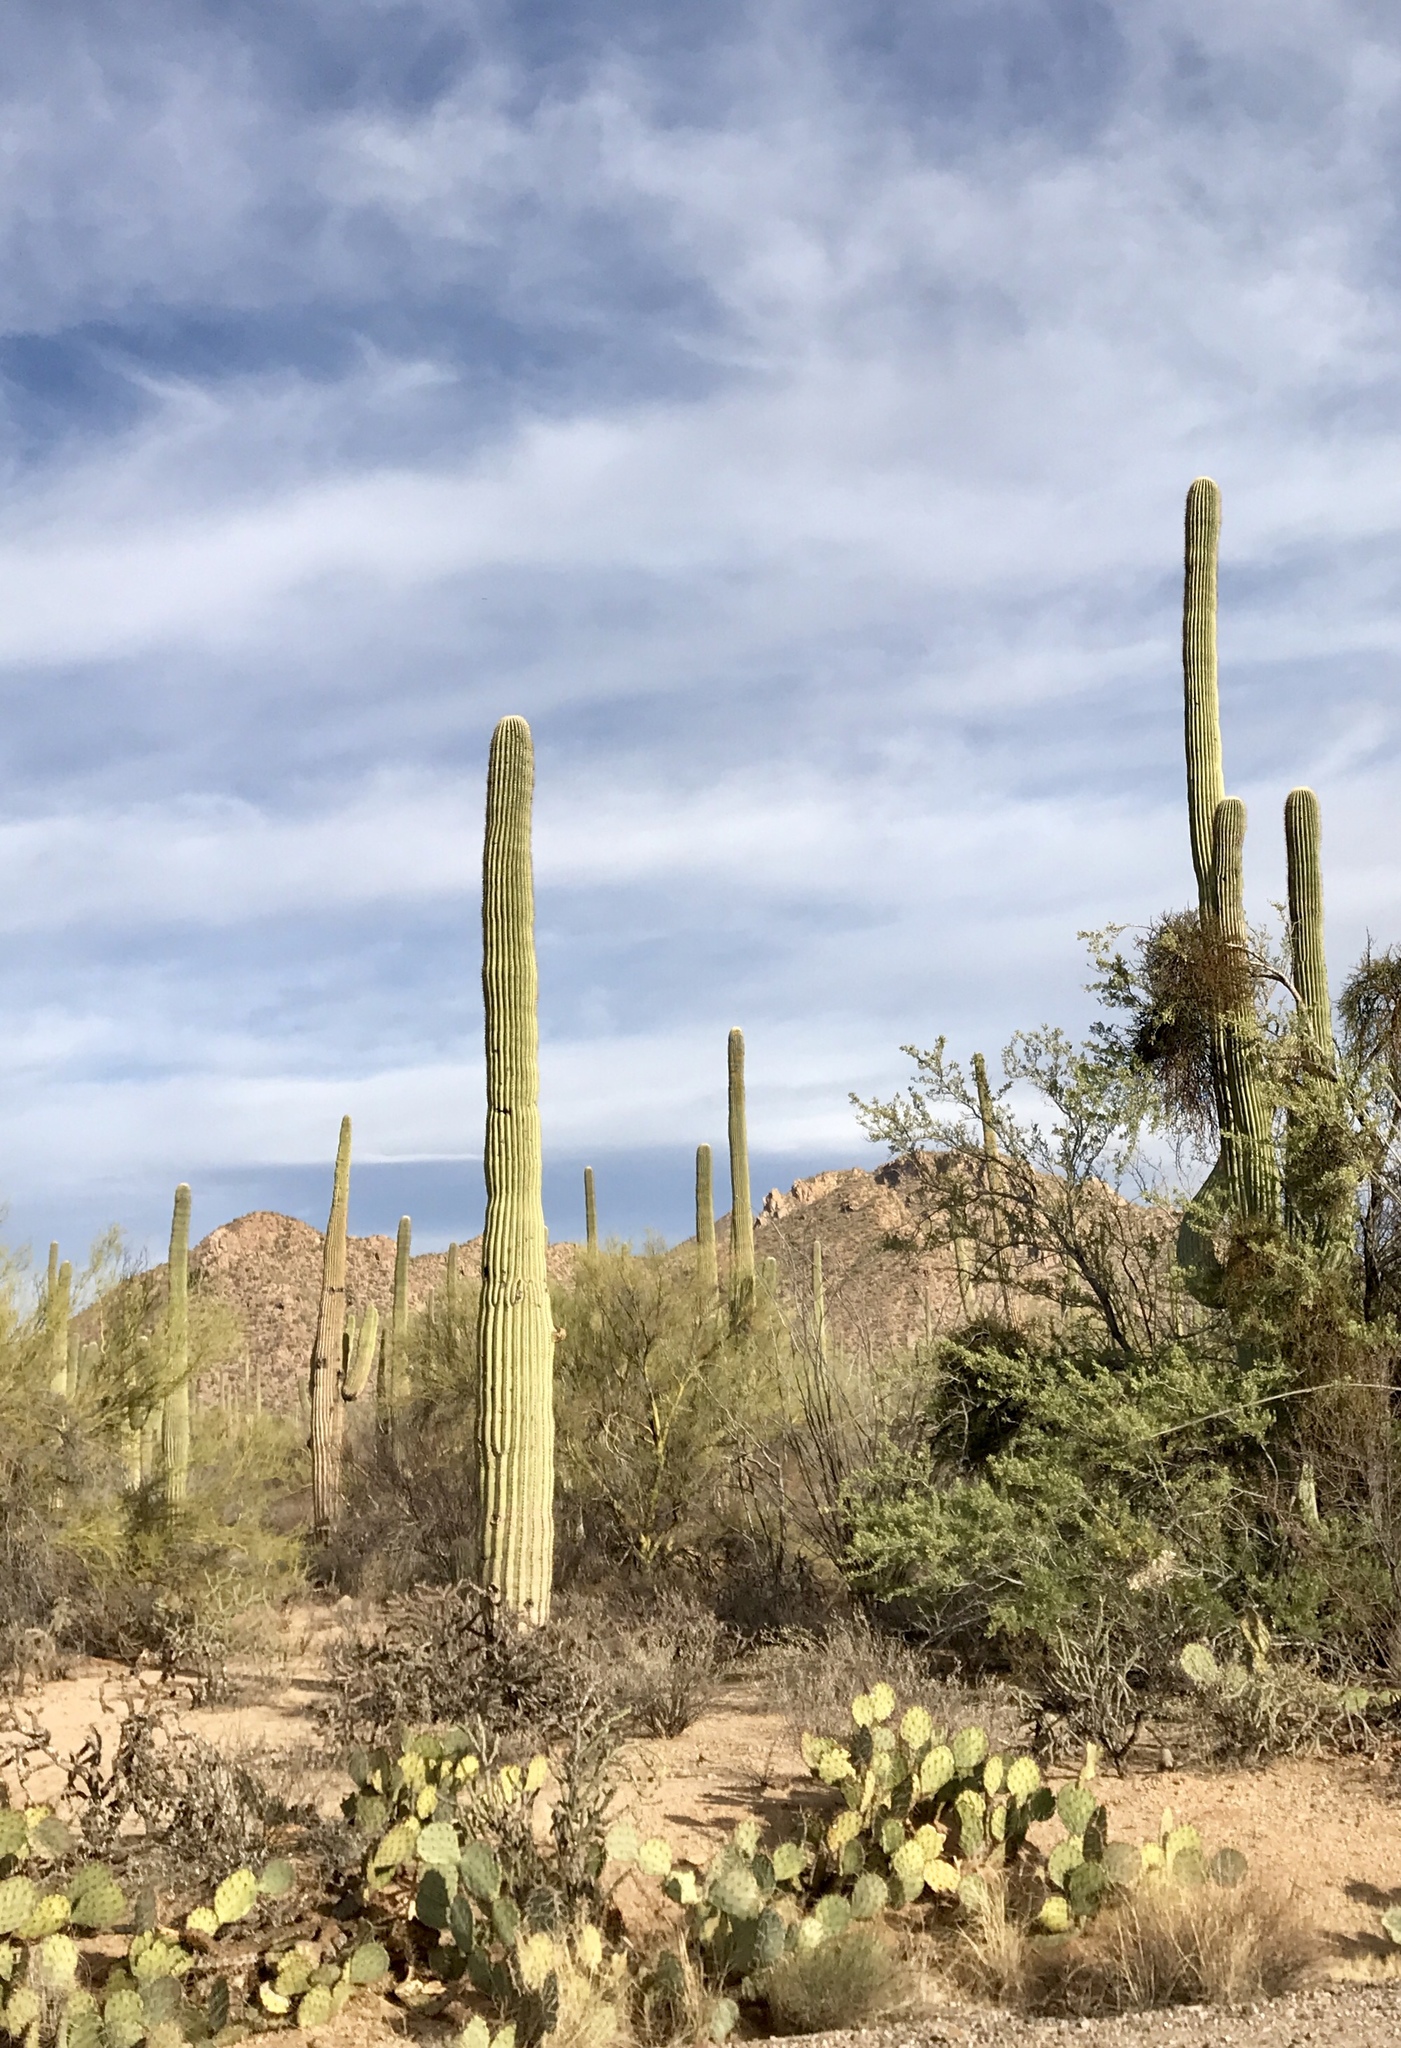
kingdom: Plantae
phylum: Tracheophyta
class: Magnoliopsida
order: Caryophyllales
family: Cactaceae
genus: Carnegiea
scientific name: Carnegiea gigantea
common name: Saguaro
